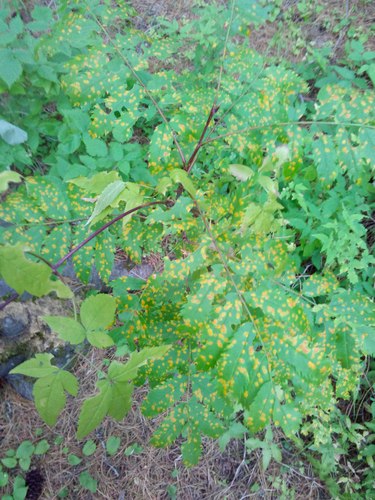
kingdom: Fungi
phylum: Basidiomycota
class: Pucciniomycetes
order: Pucciniales
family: Gymnosporangiaceae
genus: Gymnosporangium
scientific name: Gymnosporangium
